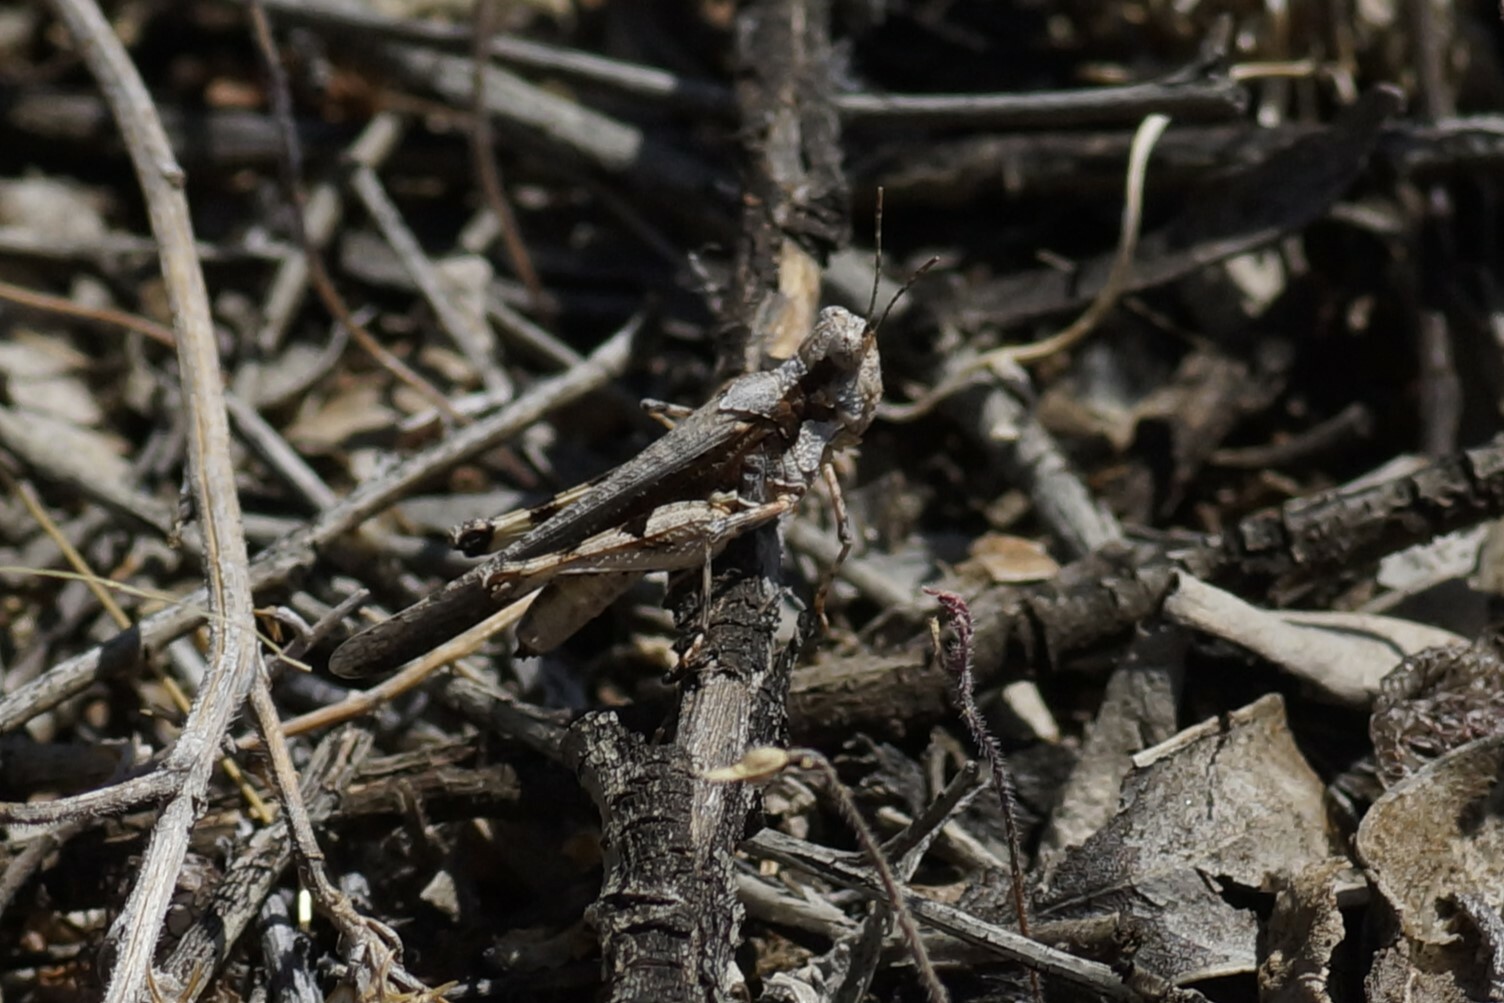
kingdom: Animalia
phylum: Arthropoda
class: Insecta
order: Orthoptera
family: Acrididae
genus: Pycnostictus
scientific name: Pycnostictus seriatus
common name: Common bandwing
